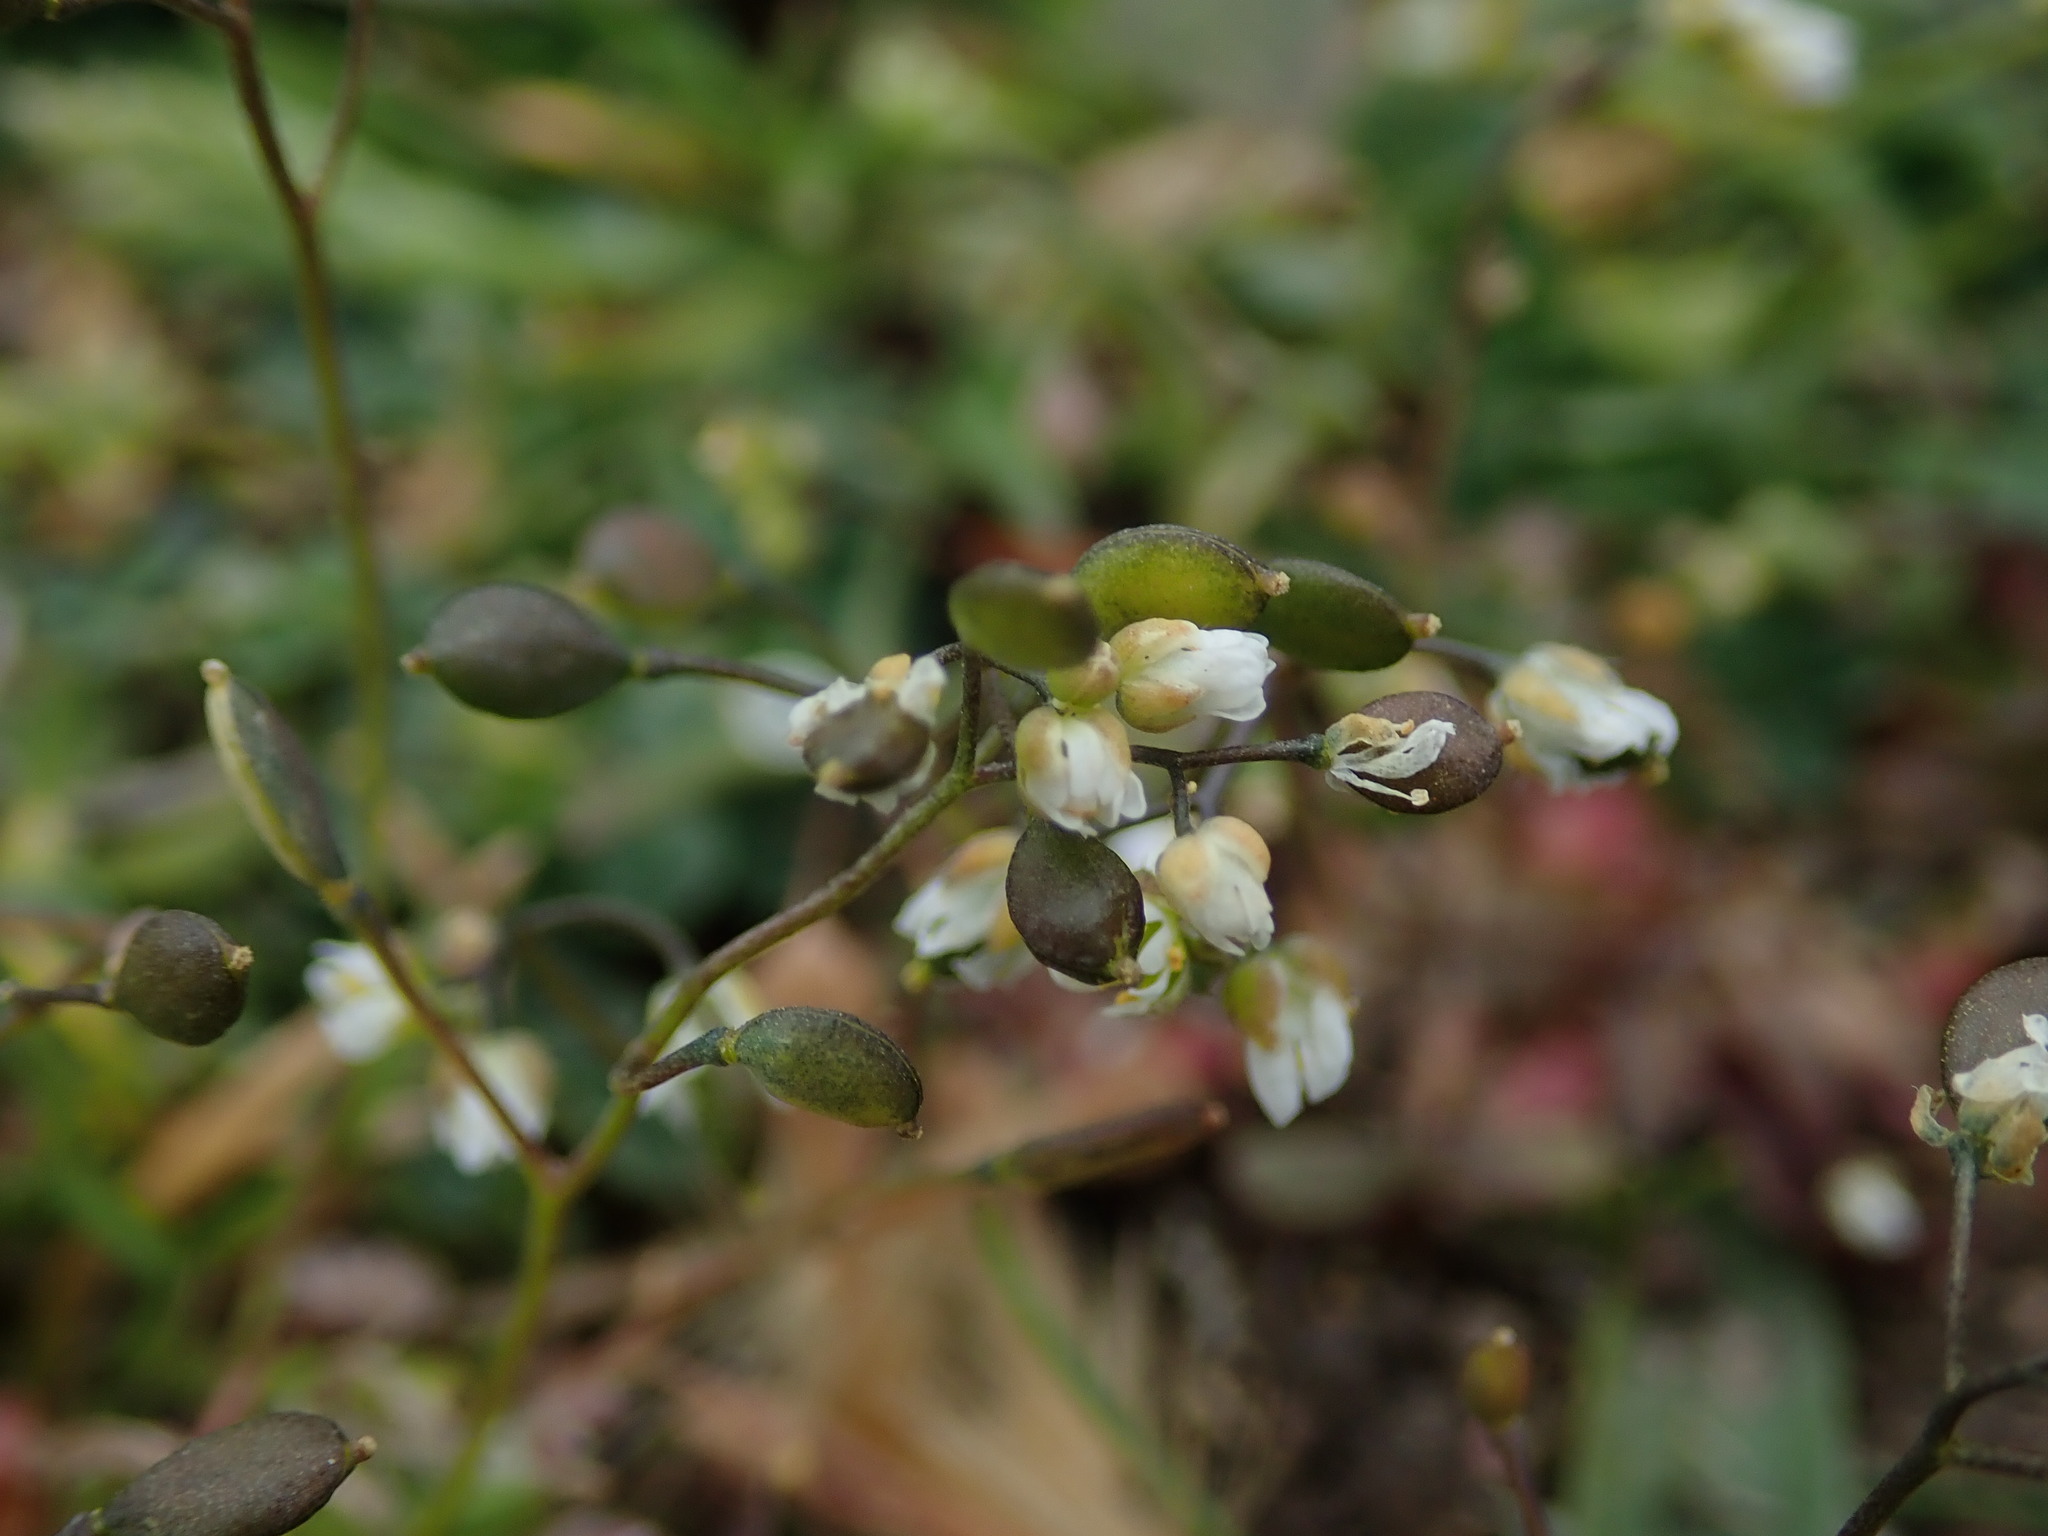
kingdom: Plantae
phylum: Tracheophyta
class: Magnoliopsida
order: Brassicales
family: Brassicaceae
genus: Draba
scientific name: Draba verna
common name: Spring draba
